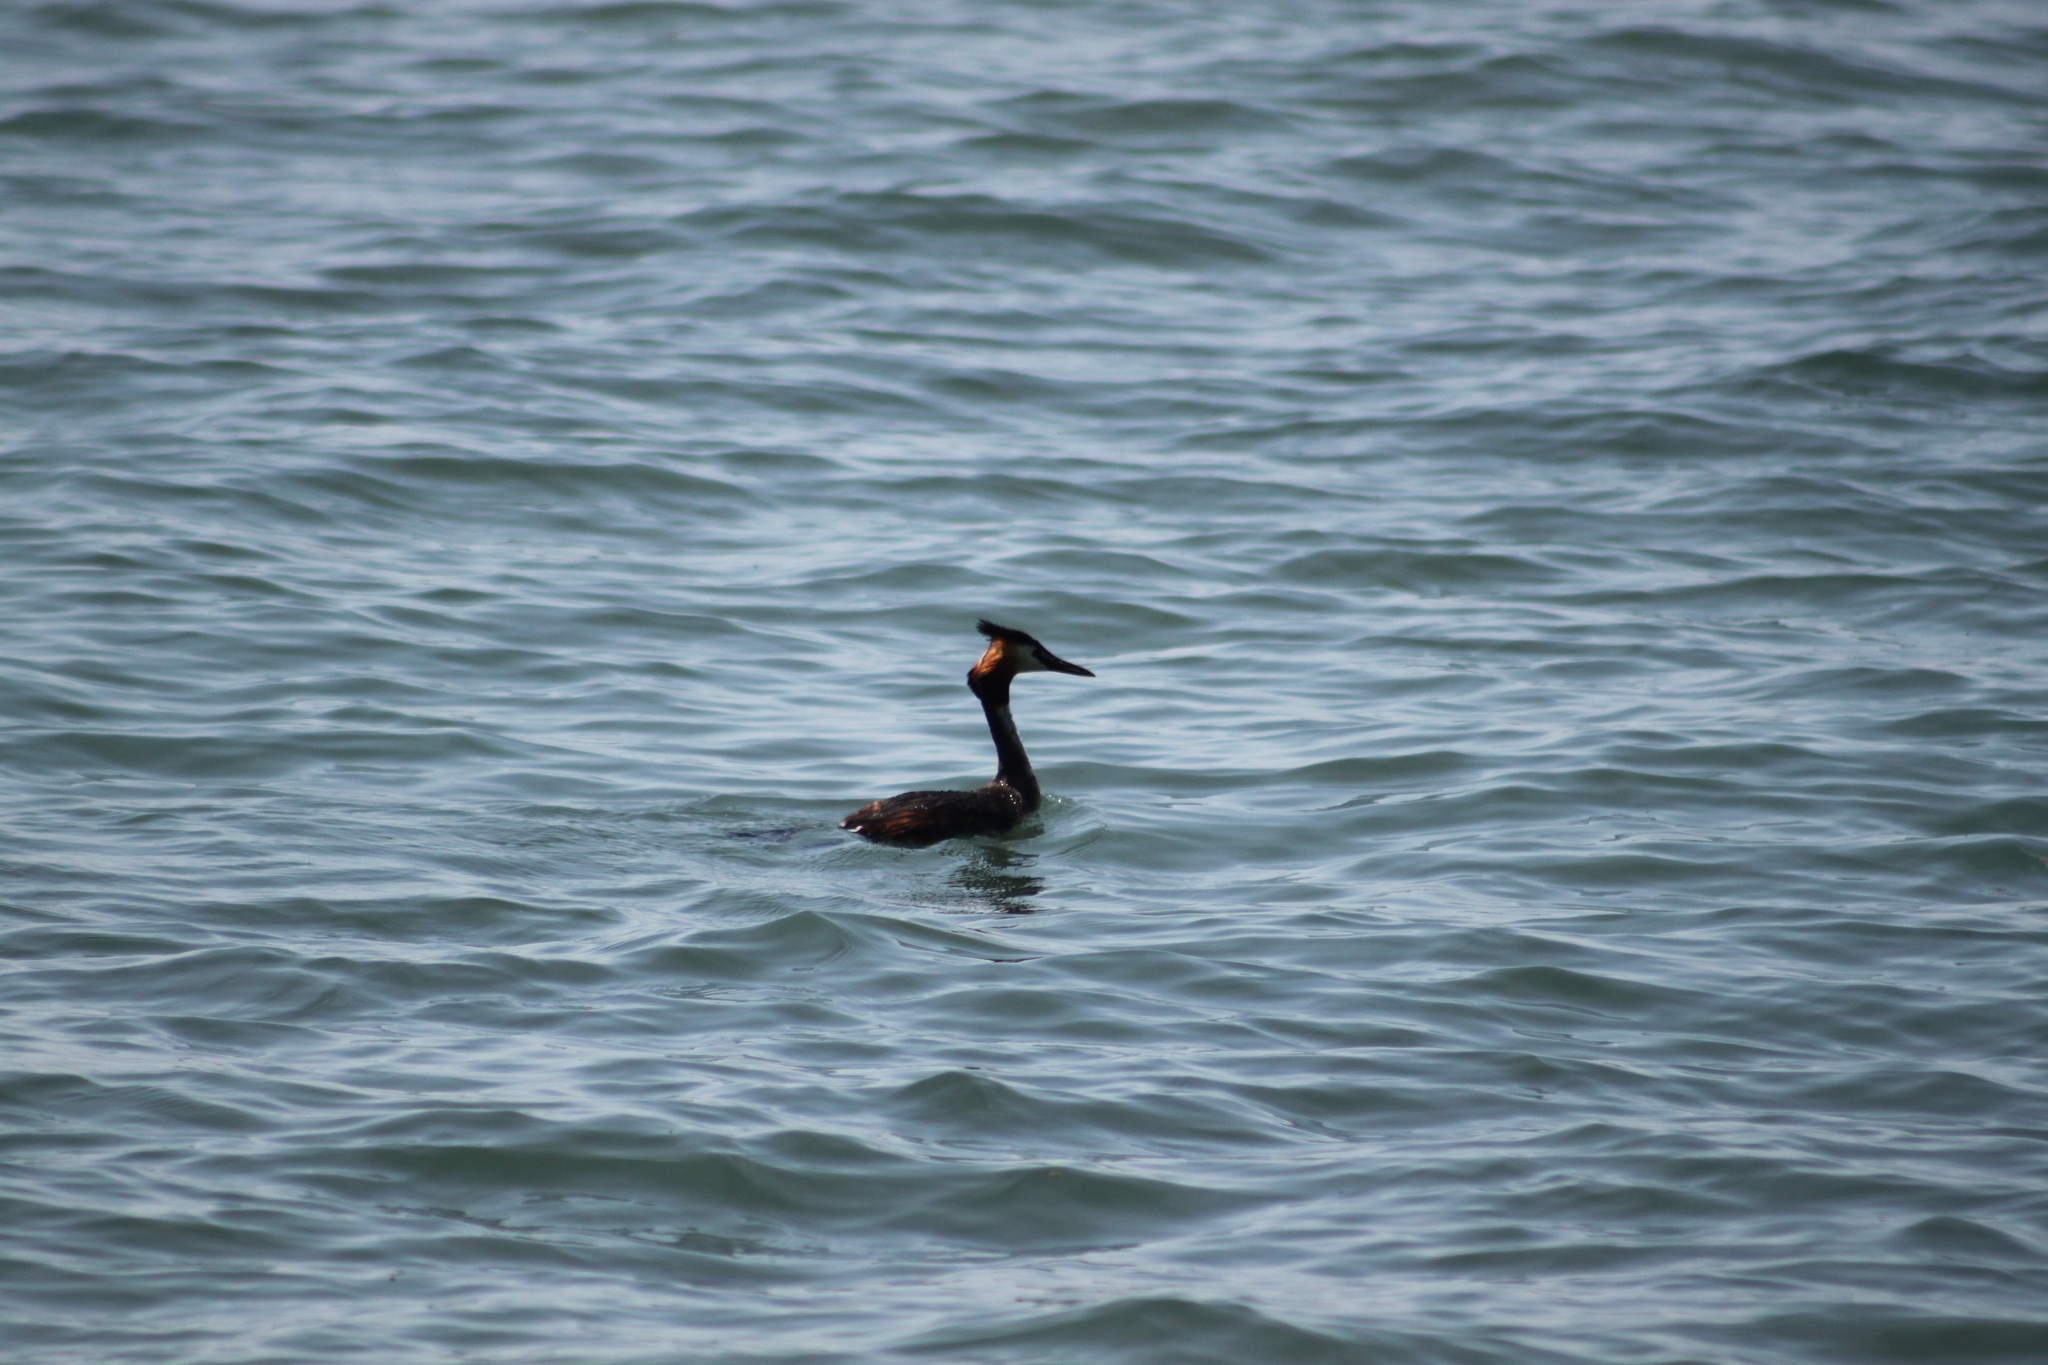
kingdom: Animalia
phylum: Chordata
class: Aves
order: Podicipediformes
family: Podicipedidae
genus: Podiceps
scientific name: Podiceps cristatus
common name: Great crested grebe
